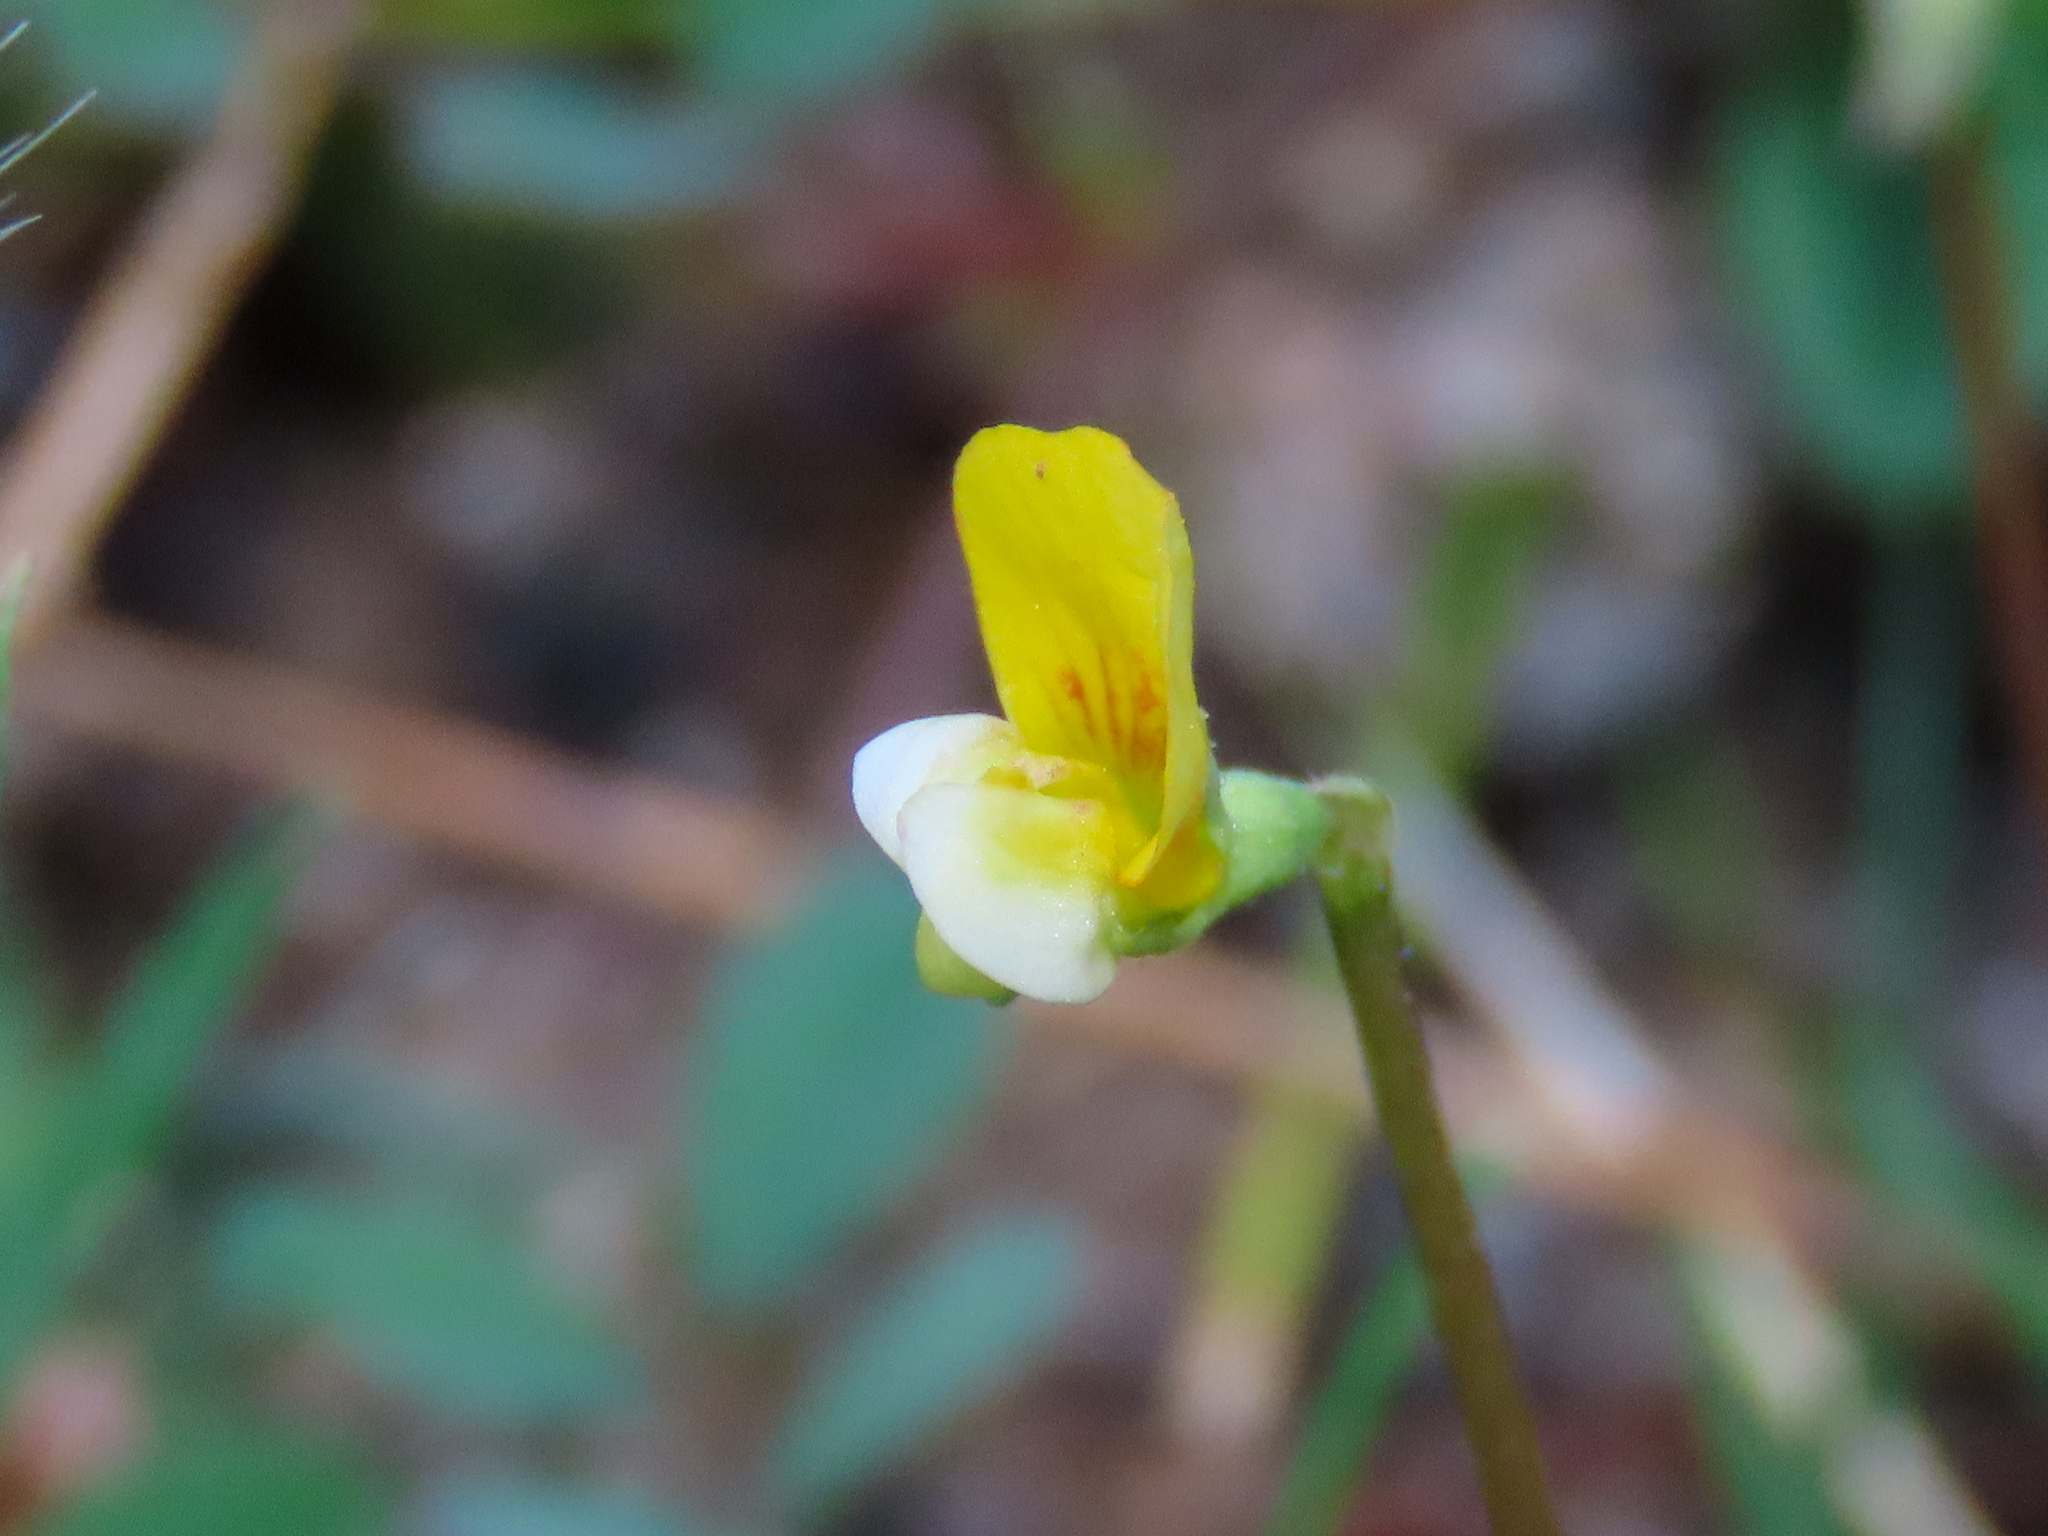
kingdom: Plantae
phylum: Tracheophyta
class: Magnoliopsida
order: Fabales
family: Fabaceae
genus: Acmispon
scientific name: Acmispon watsonii
